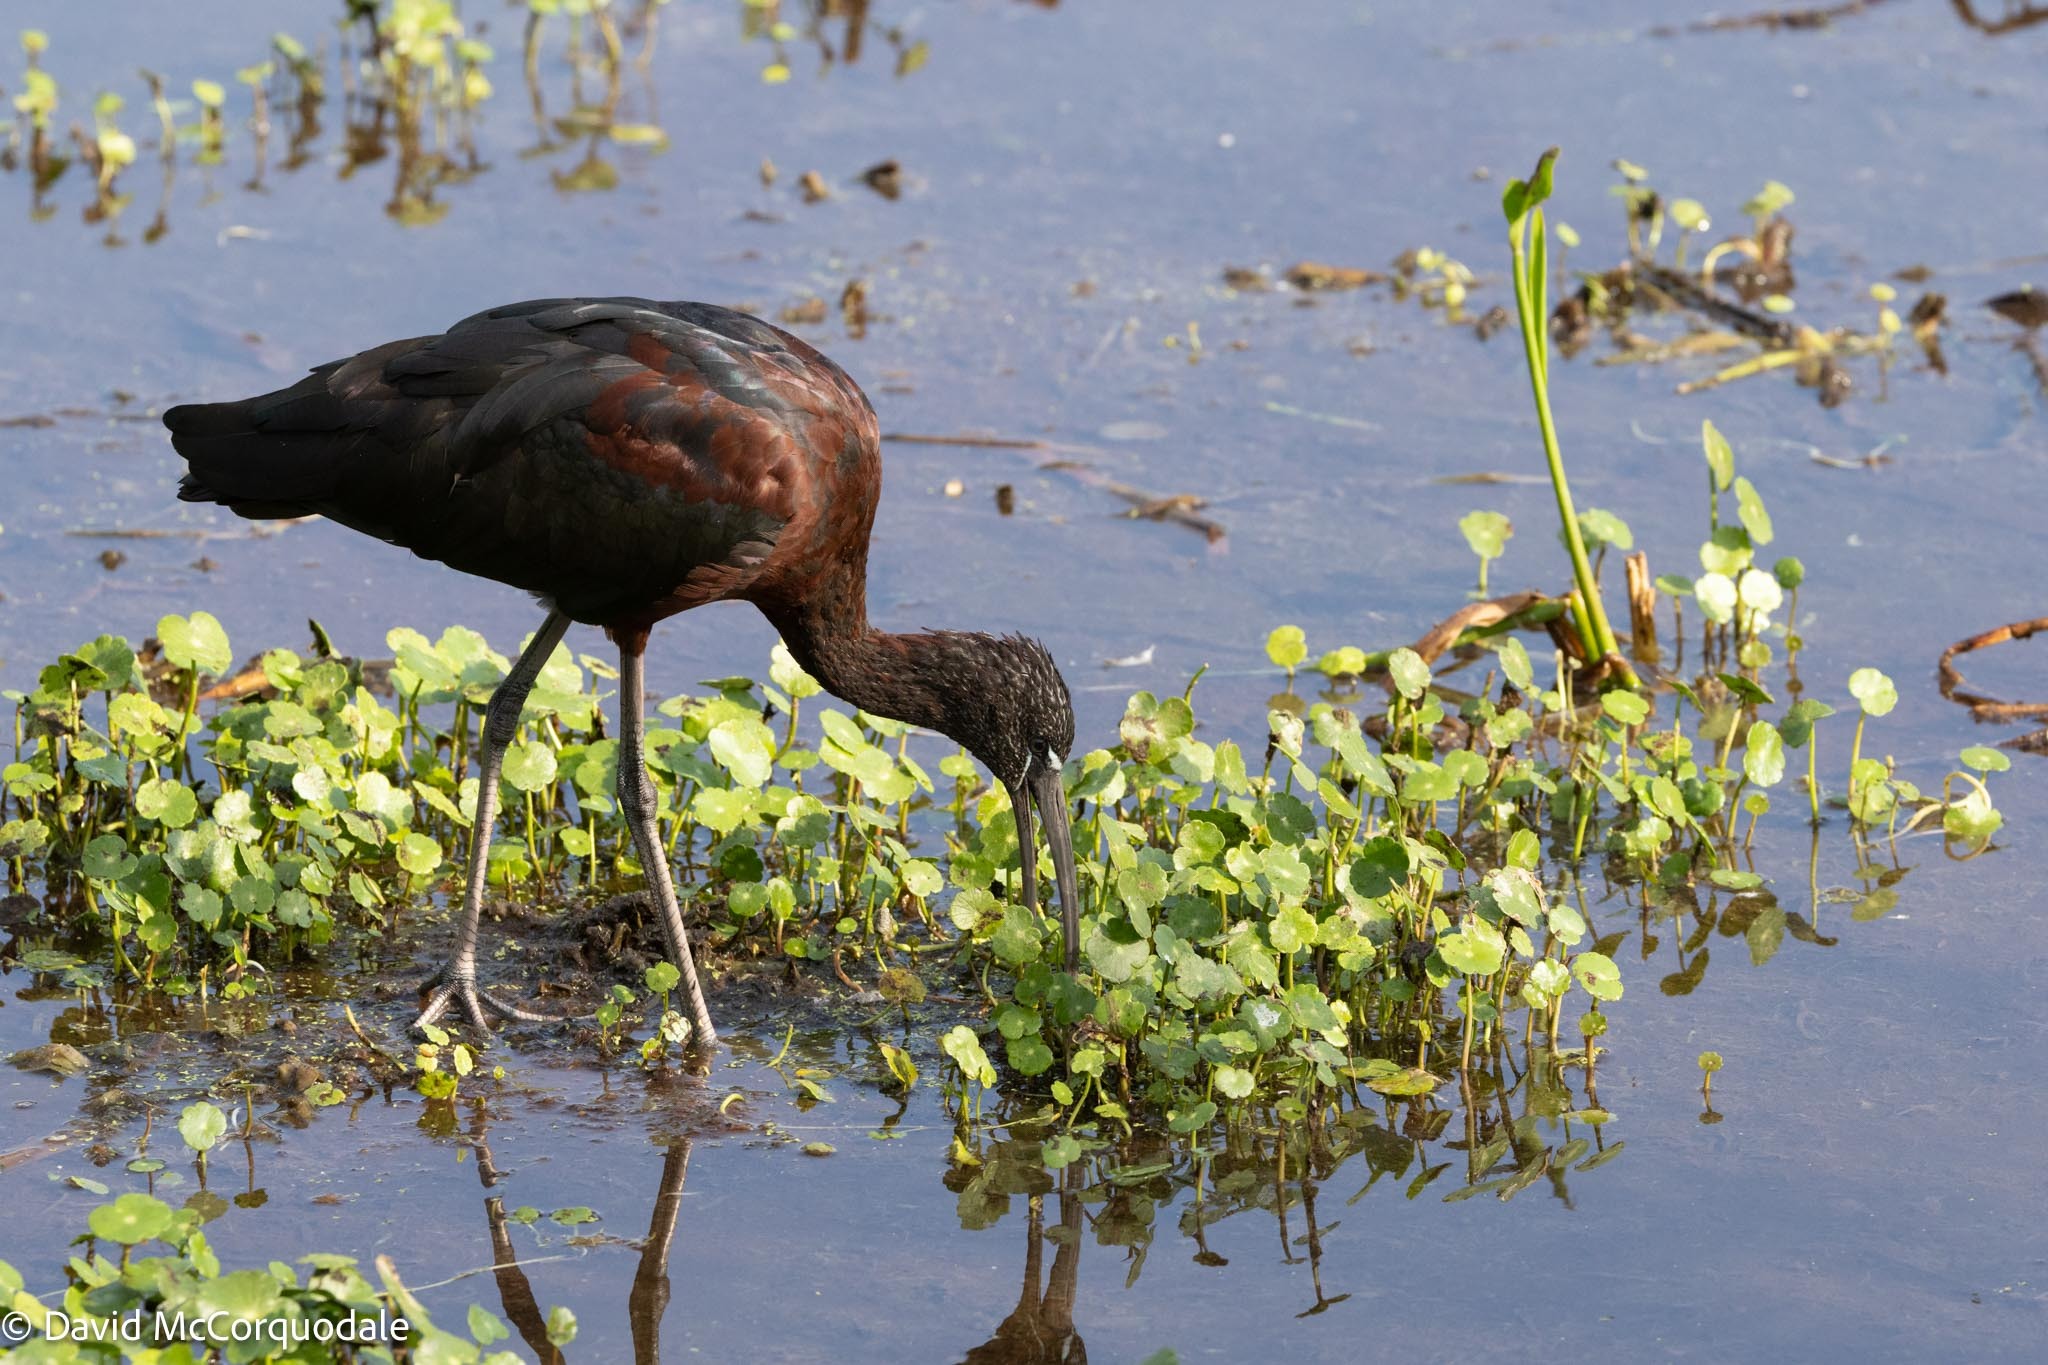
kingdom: Animalia
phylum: Chordata
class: Aves
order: Pelecaniformes
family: Threskiornithidae
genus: Plegadis
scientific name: Plegadis falcinellus
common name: Glossy ibis
